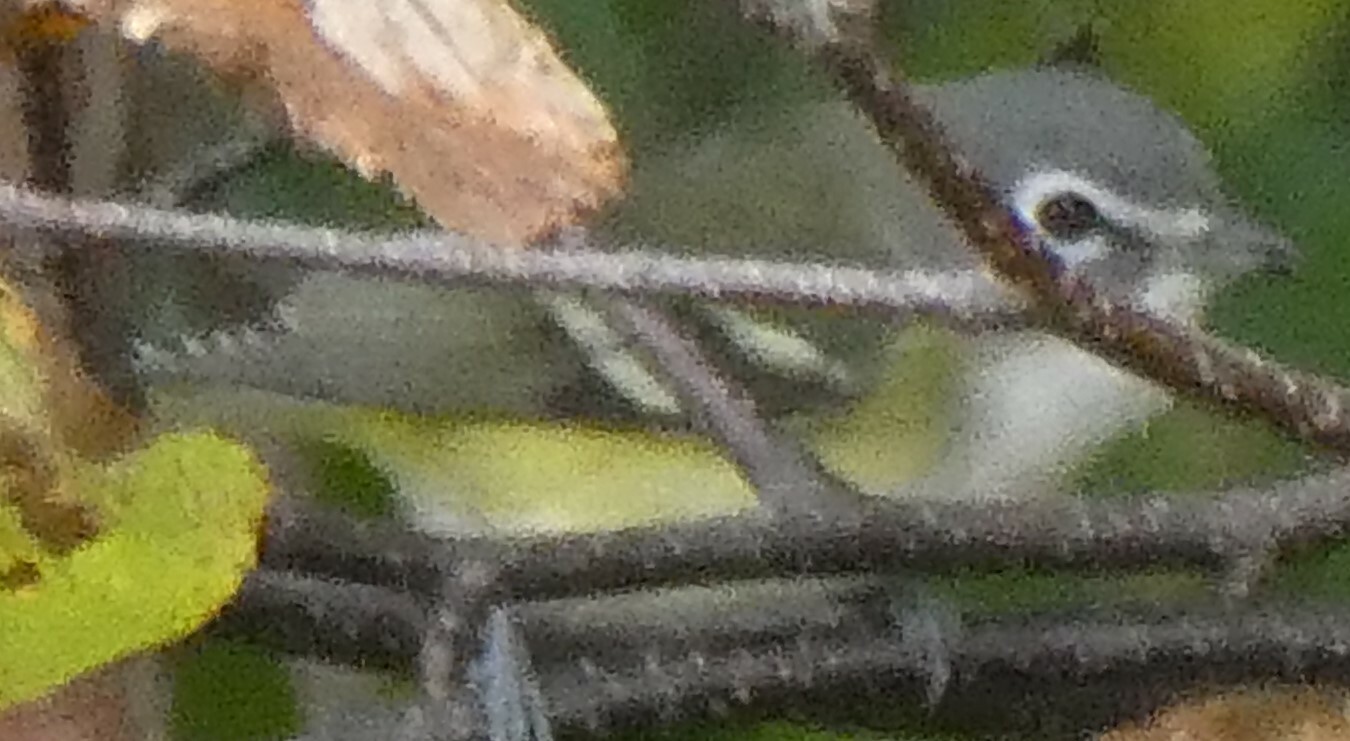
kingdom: Animalia
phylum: Chordata
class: Aves
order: Passeriformes
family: Vireonidae
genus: Vireo
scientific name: Vireo solitarius
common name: Blue-headed vireo
